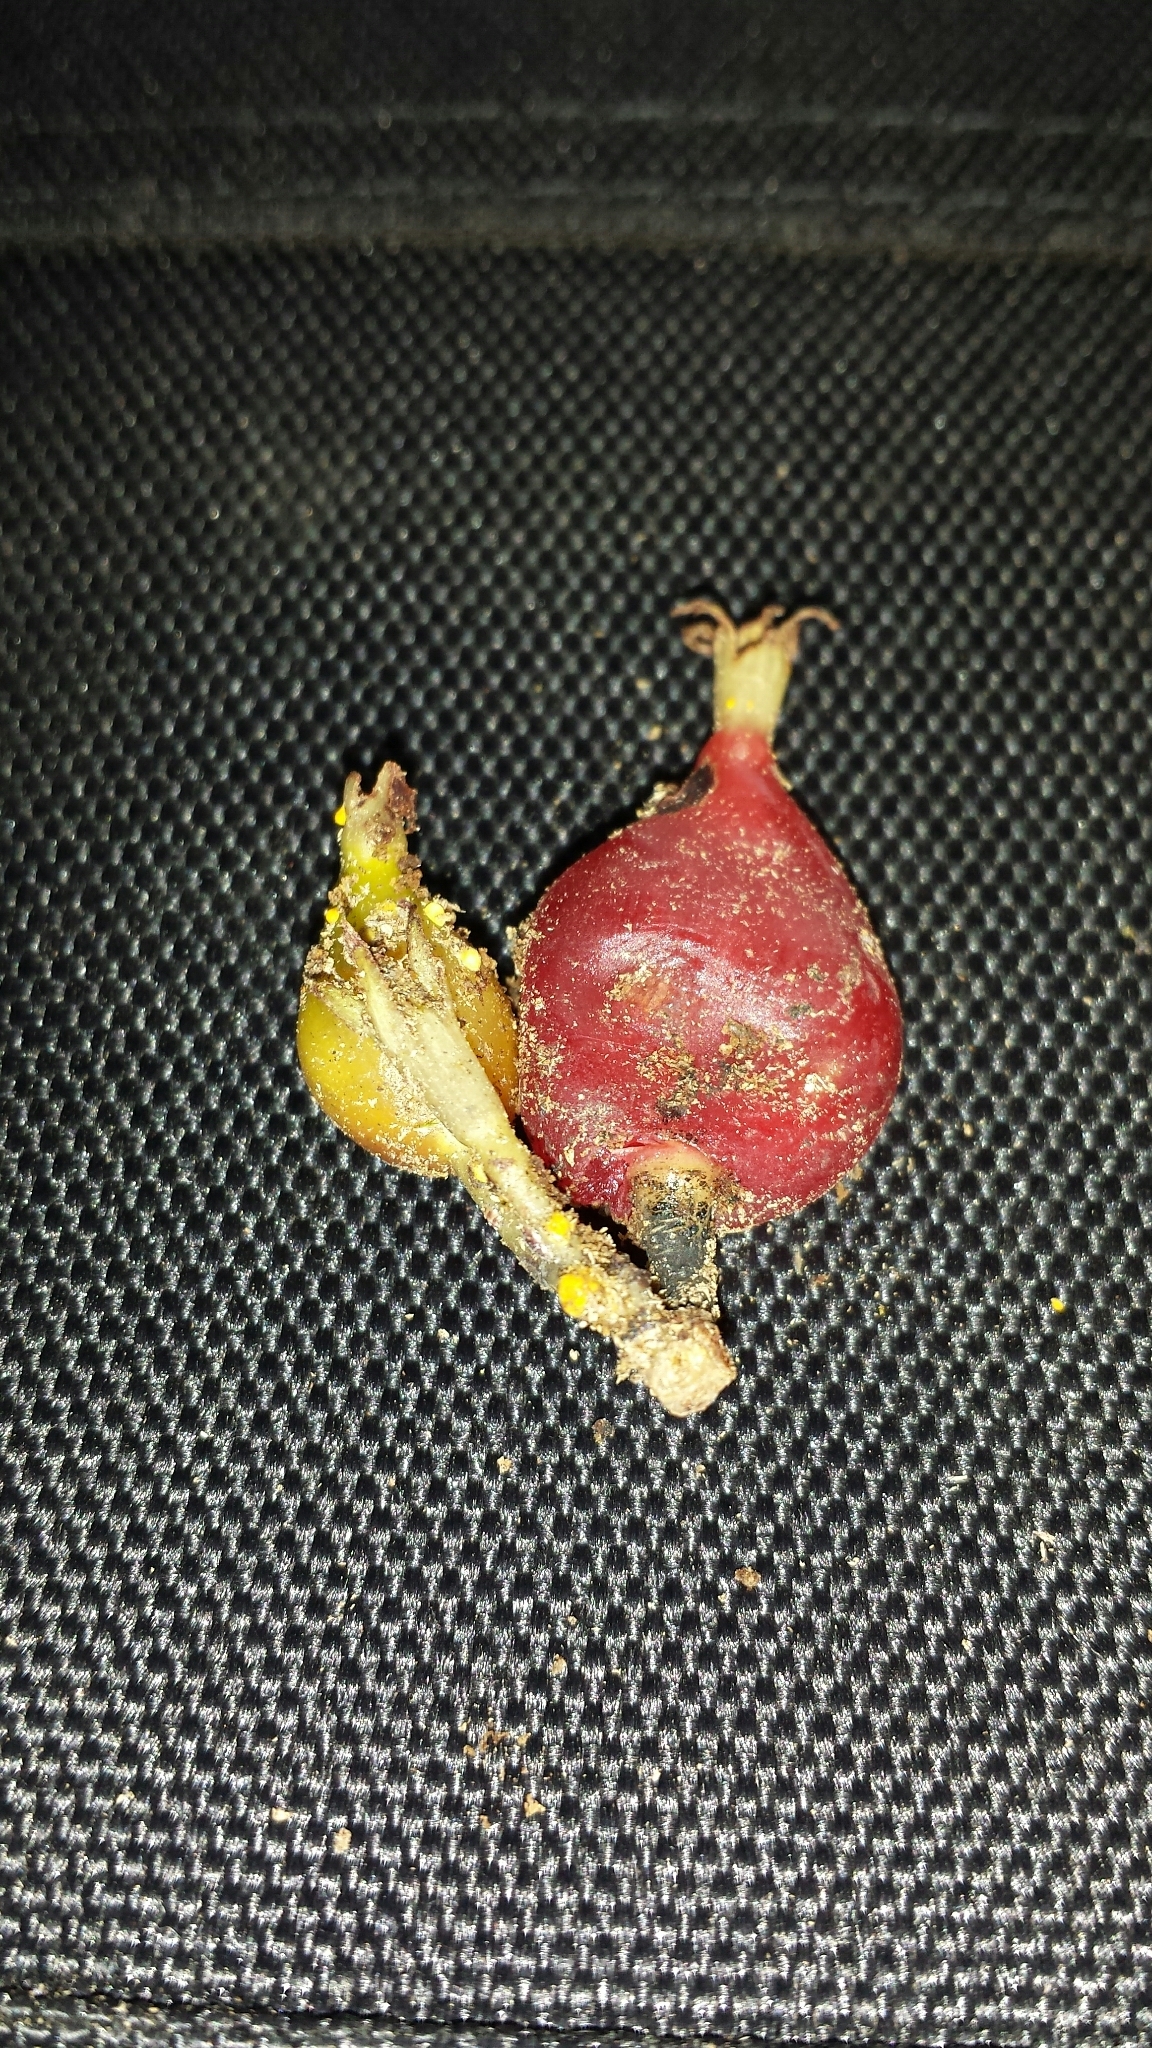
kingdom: Plantae
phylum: Tracheophyta
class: Magnoliopsida
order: Malpighiales
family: Calophyllaceae
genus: Mammea
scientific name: Mammea zeereae
